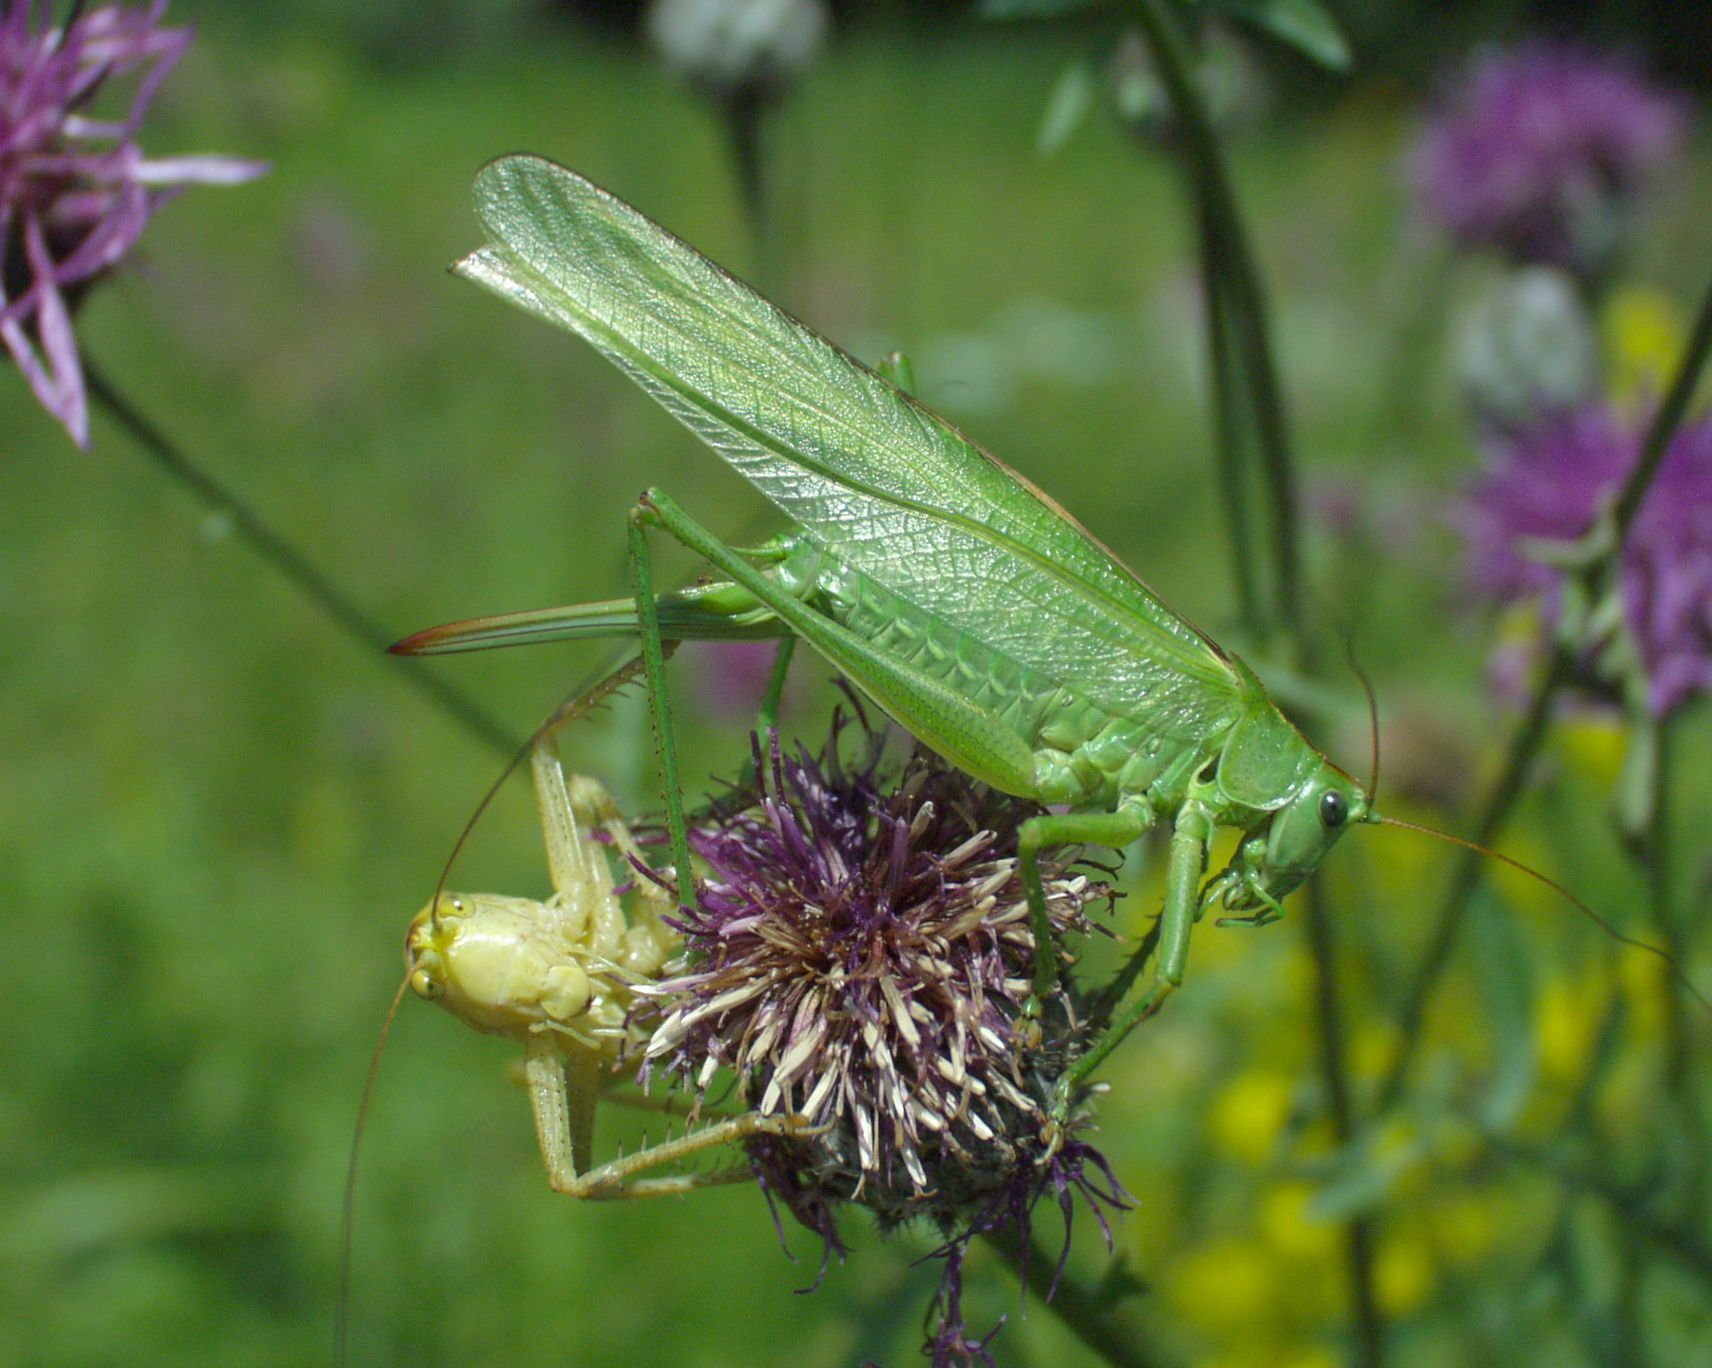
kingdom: Animalia
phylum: Arthropoda
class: Insecta
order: Orthoptera
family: Tettigoniidae
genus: Tettigonia
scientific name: Tettigonia viridissima
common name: Great green bush-cricket
